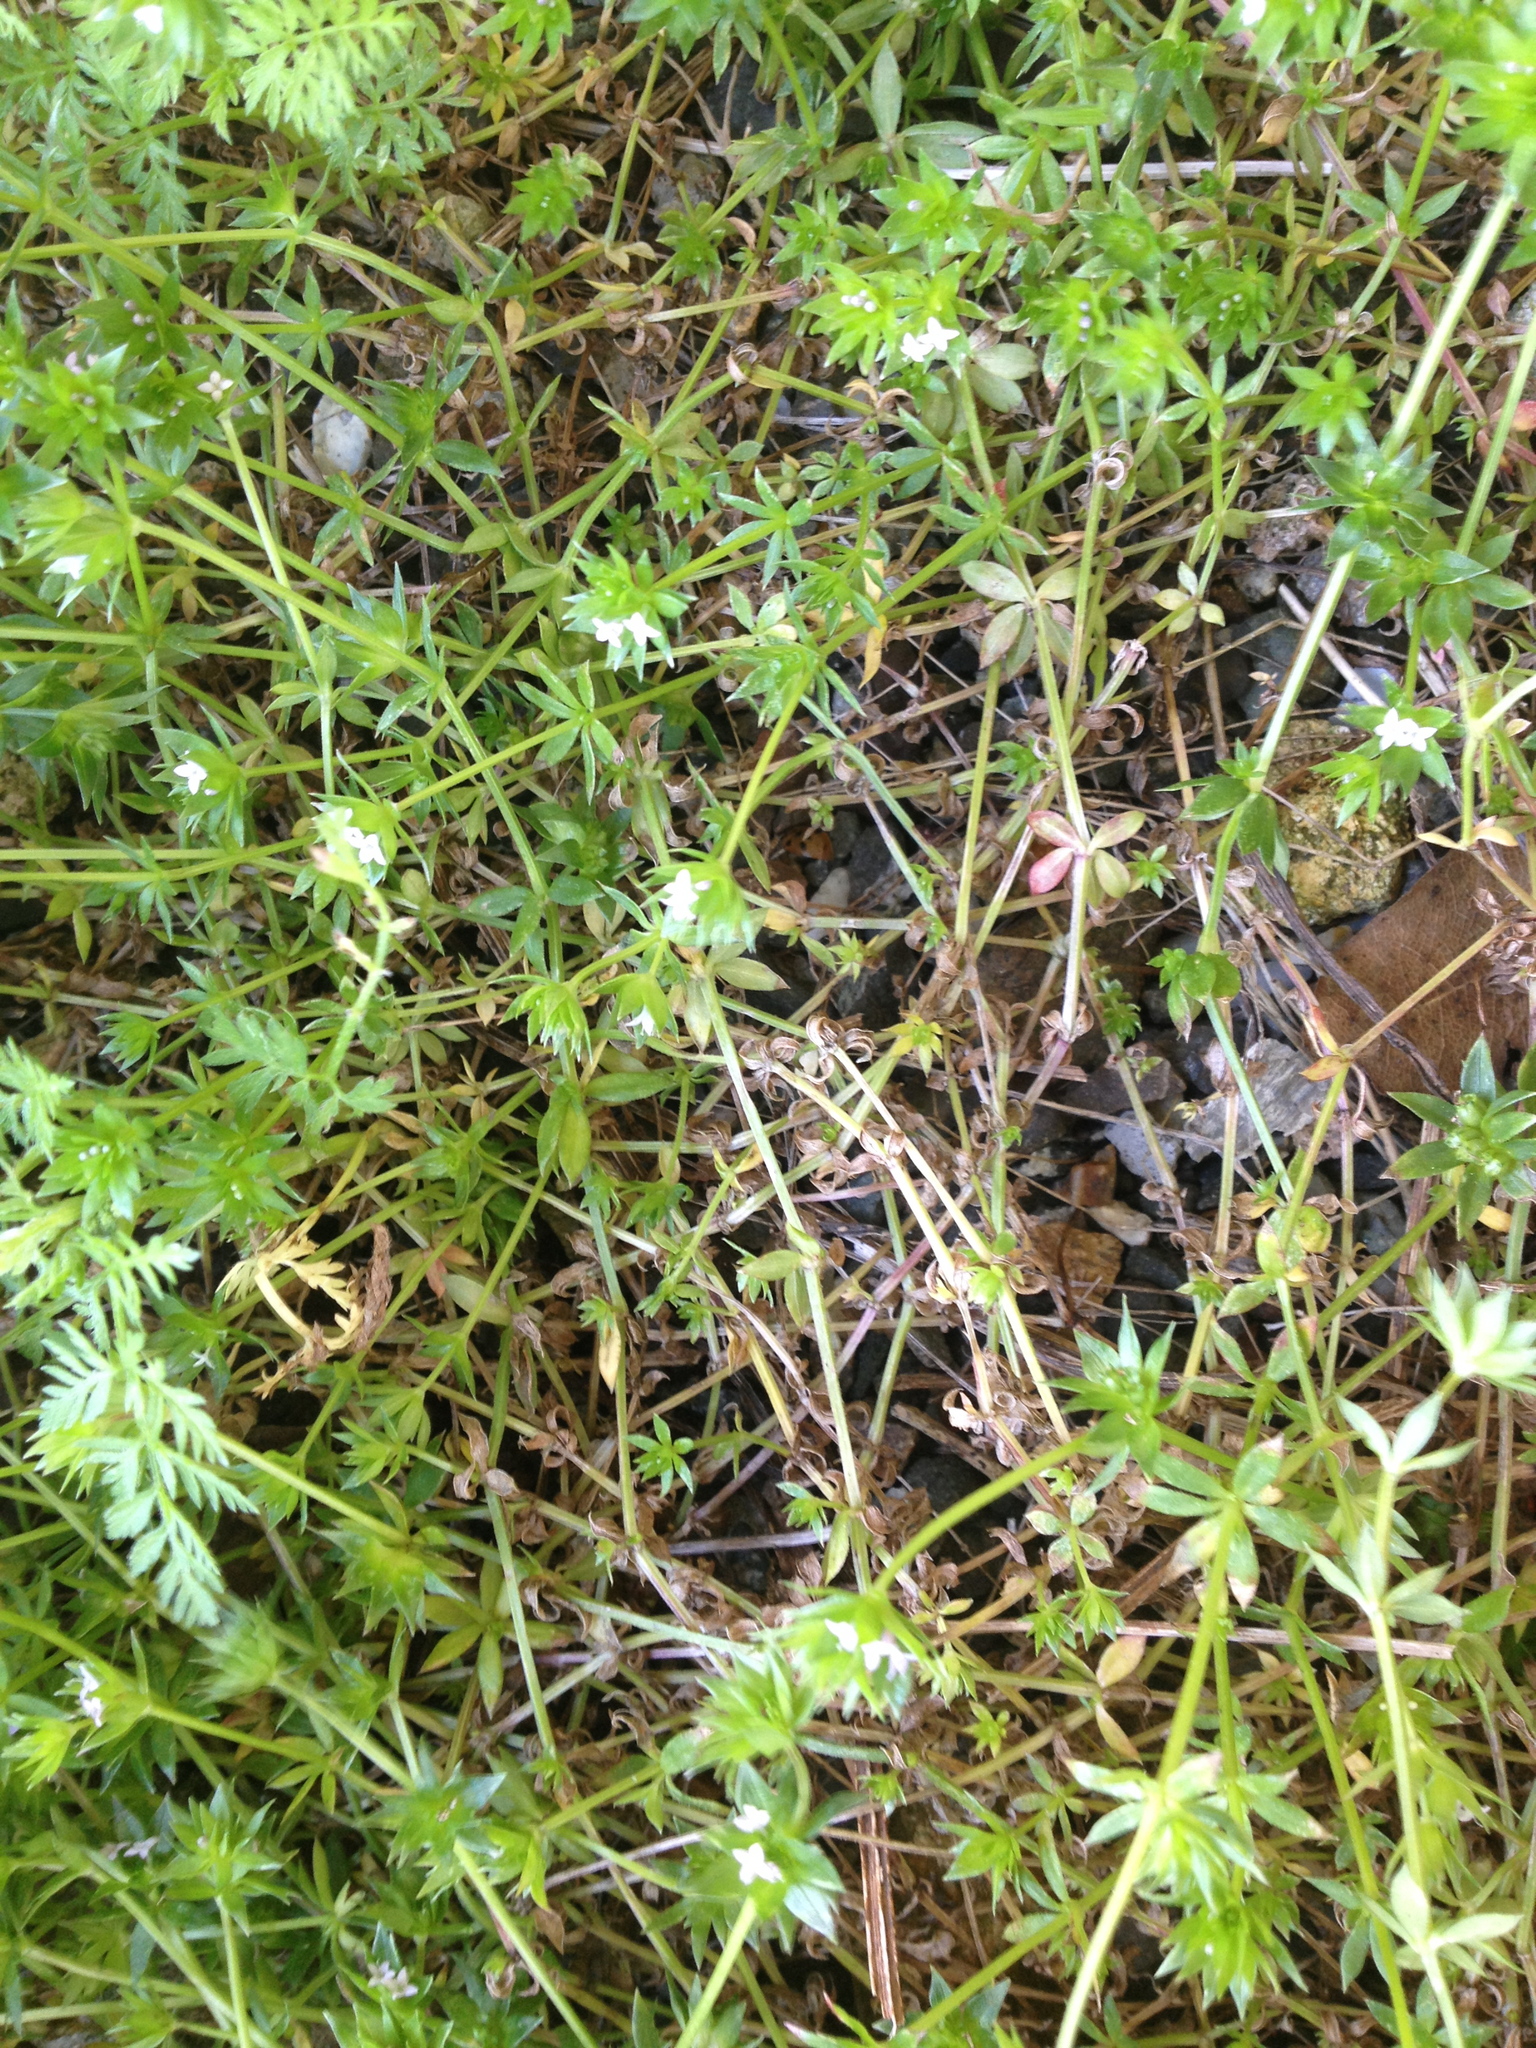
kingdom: Plantae
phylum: Tracheophyta
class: Magnoliopsida
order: Gentianales
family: Rubiaceae
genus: Sherardia
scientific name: Sherardia arvensis
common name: Field madder
